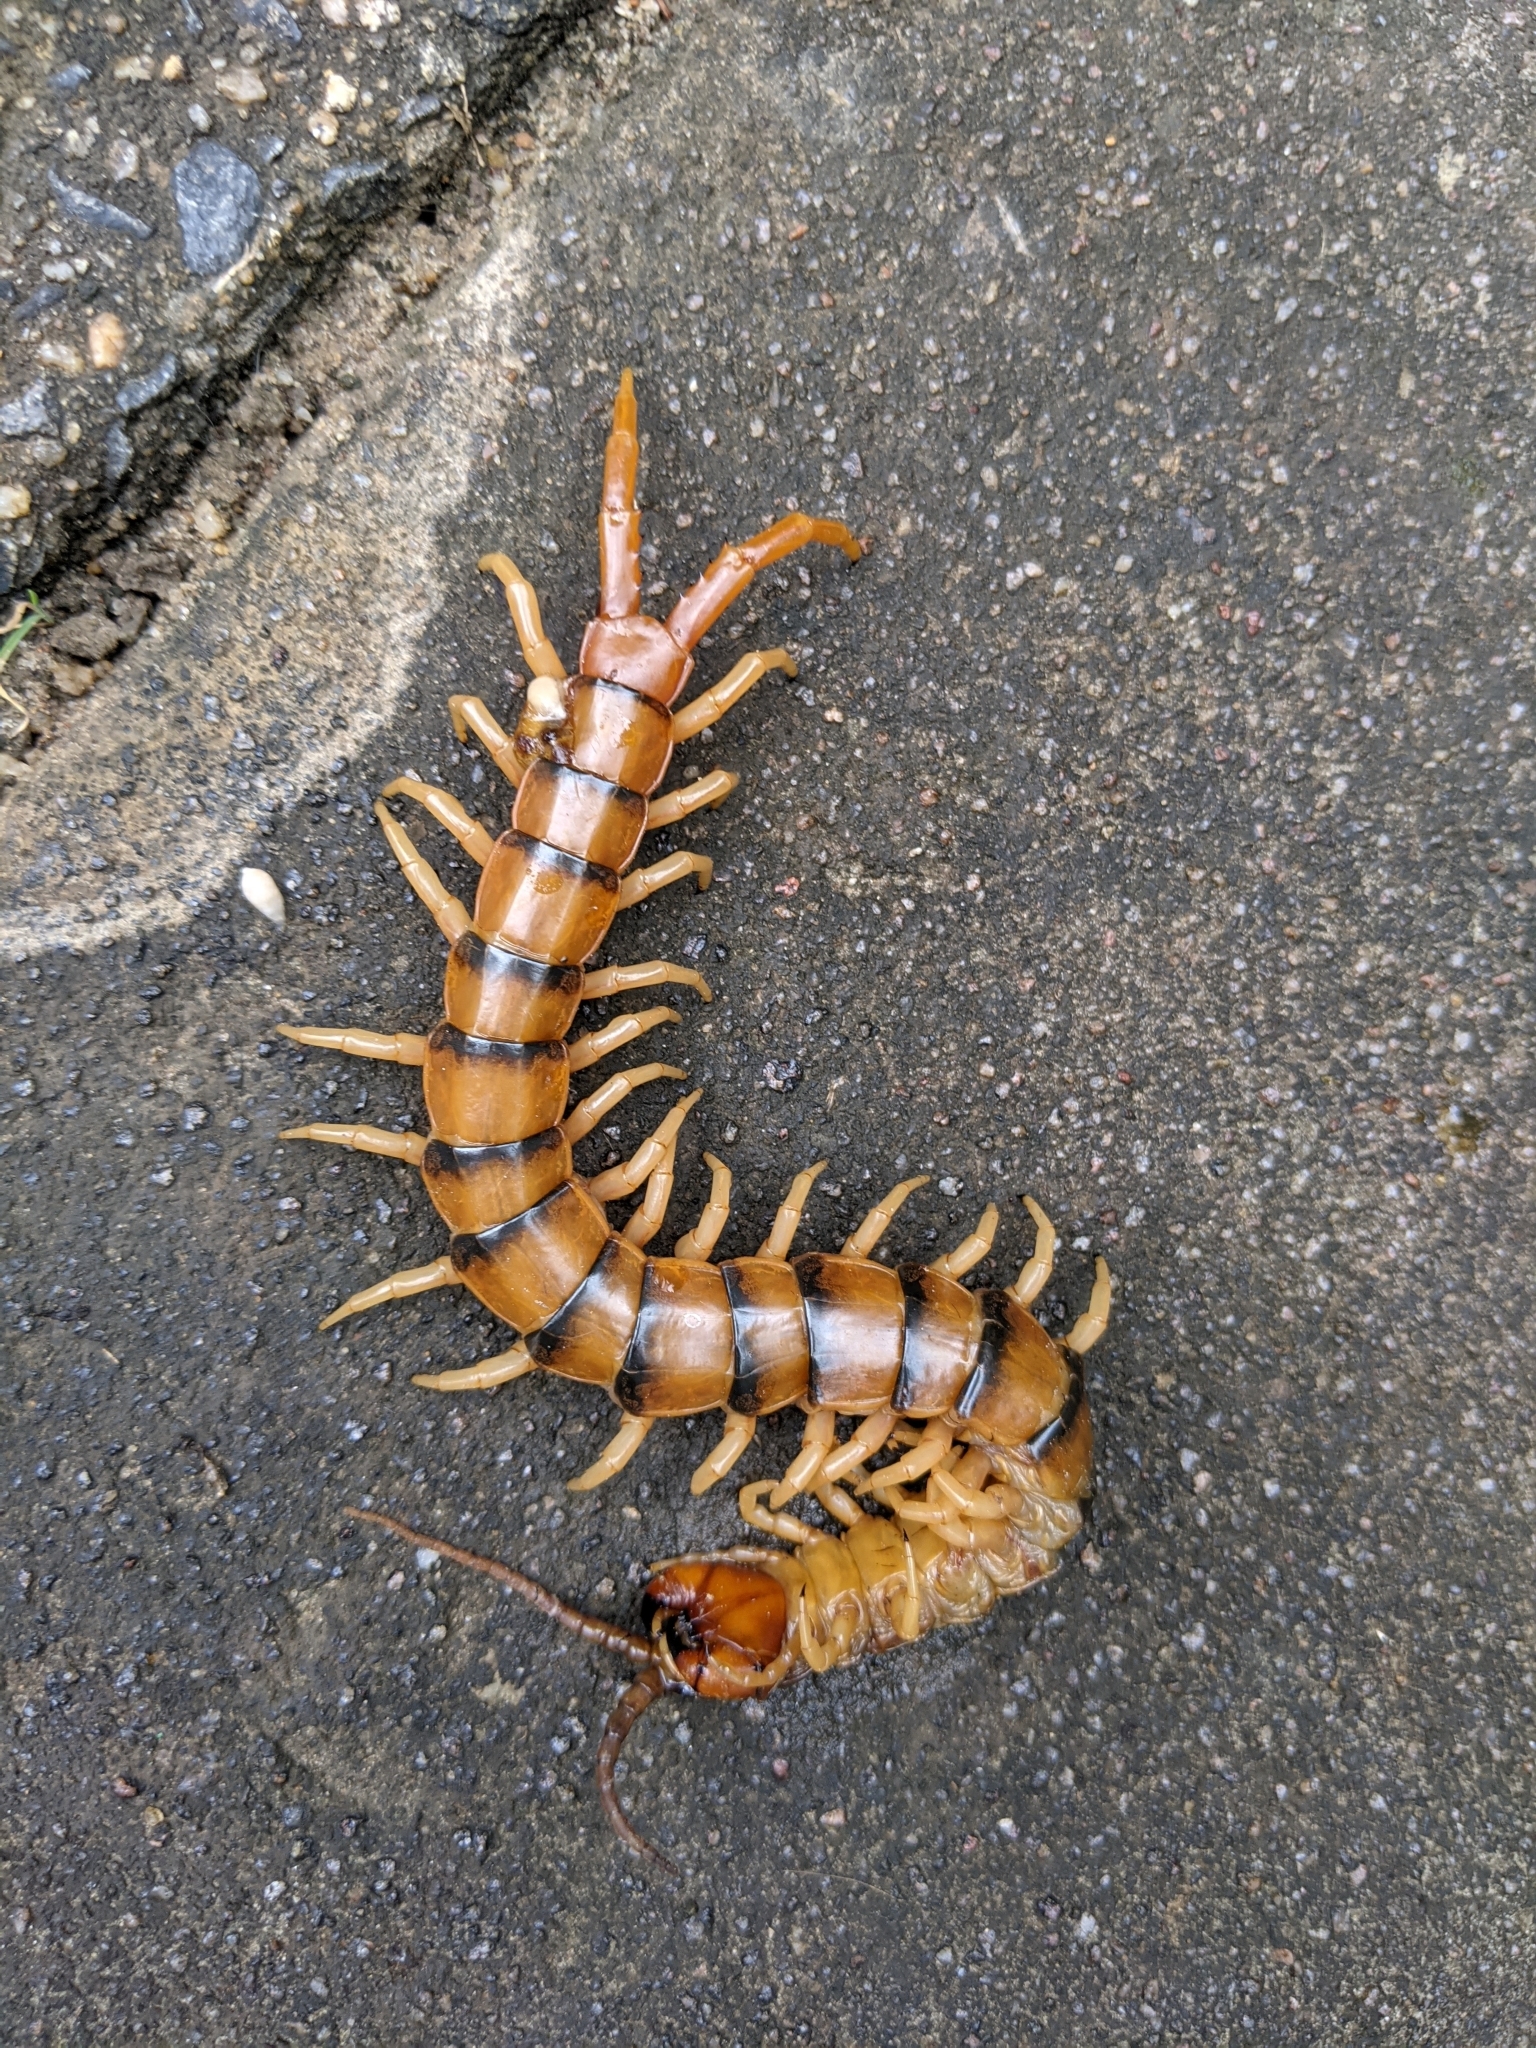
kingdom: Animalia
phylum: Arthropoda
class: Chilopoda
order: Scolopendromorpha
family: Scolopendridae
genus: Ethmostigmus
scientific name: Ethmostigmus rubripes
